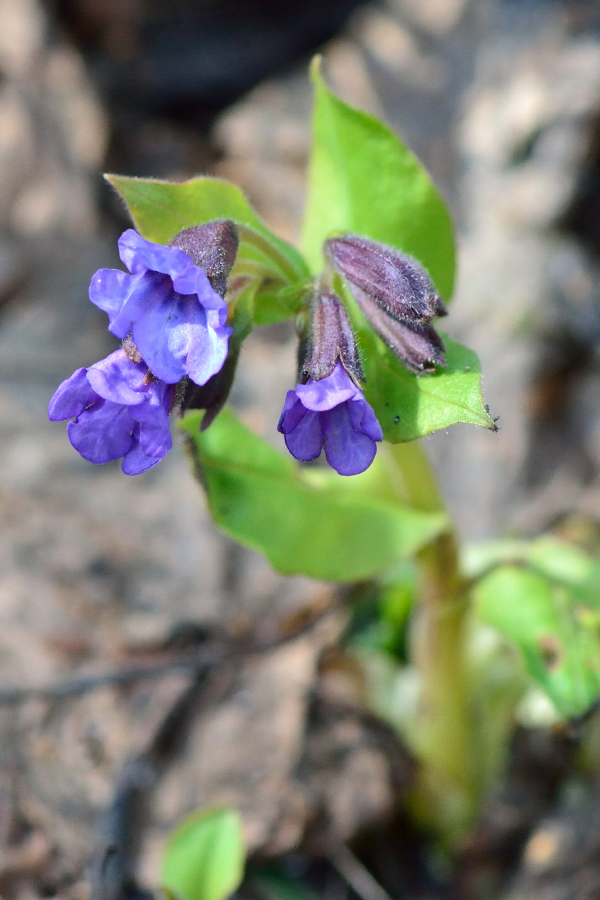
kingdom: Plantae
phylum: Tracheophyta
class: Magnoliopsida
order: Boraginales
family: Boraginaceae
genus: Pulmonaria
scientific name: Pulmonaria obscura
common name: Suffolk lungwort
